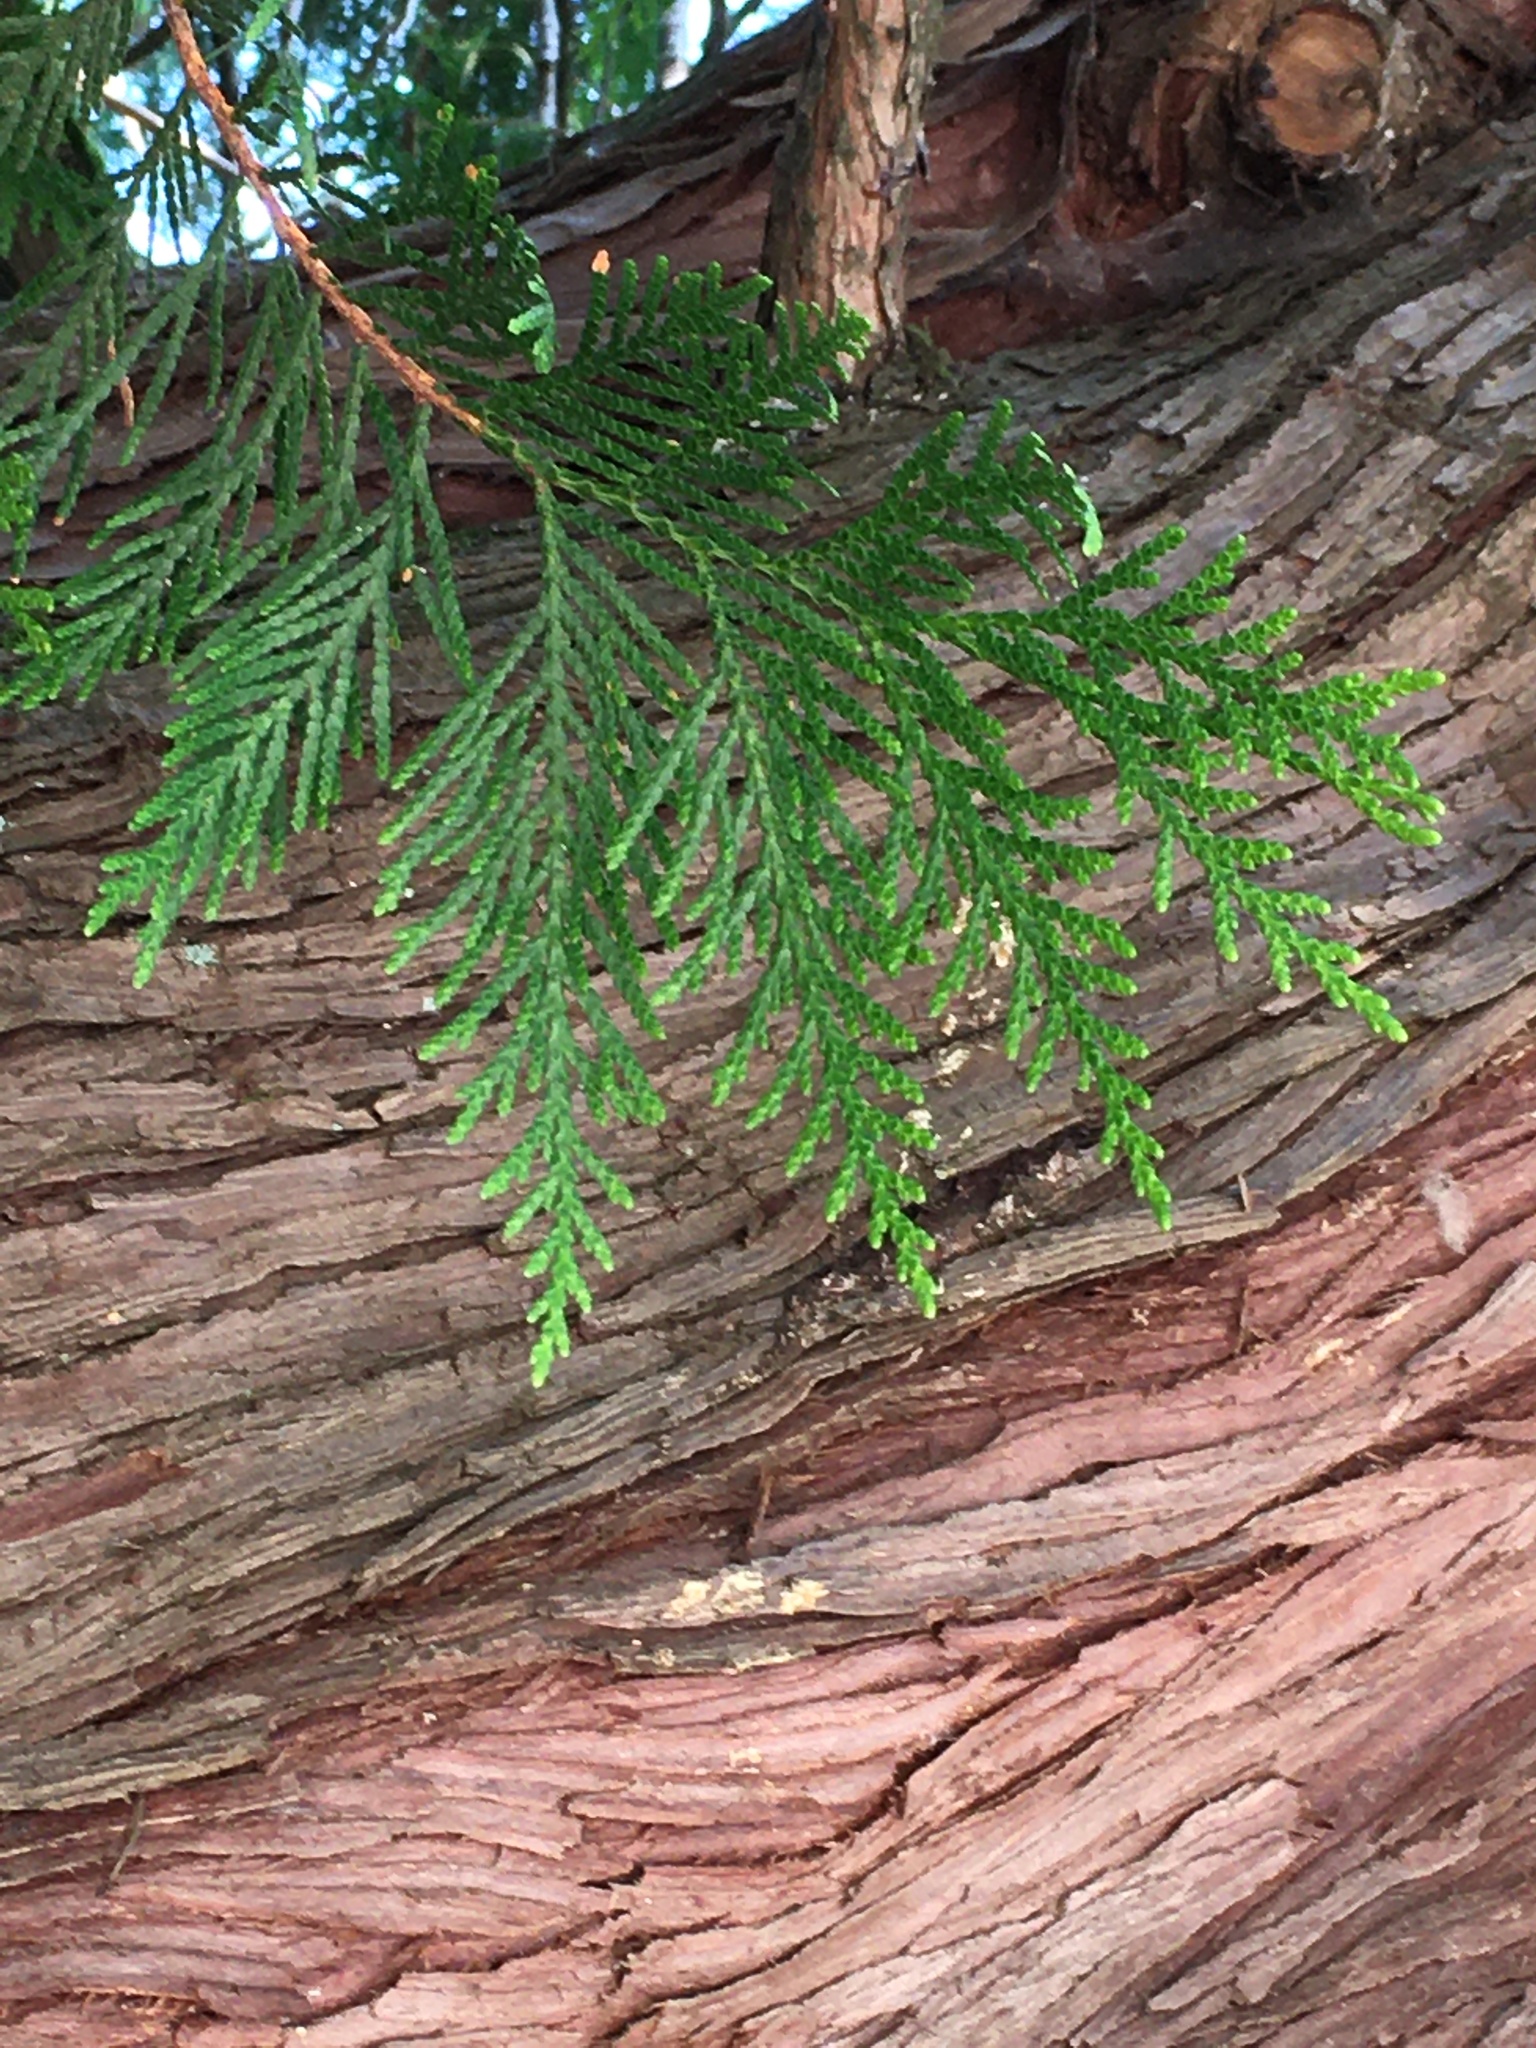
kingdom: Plantae
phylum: Tracheophyta
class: Pinopsida
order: Pinales
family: Cupressaceae
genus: Thuja
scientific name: Thuja plicata
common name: Western red-cedar
